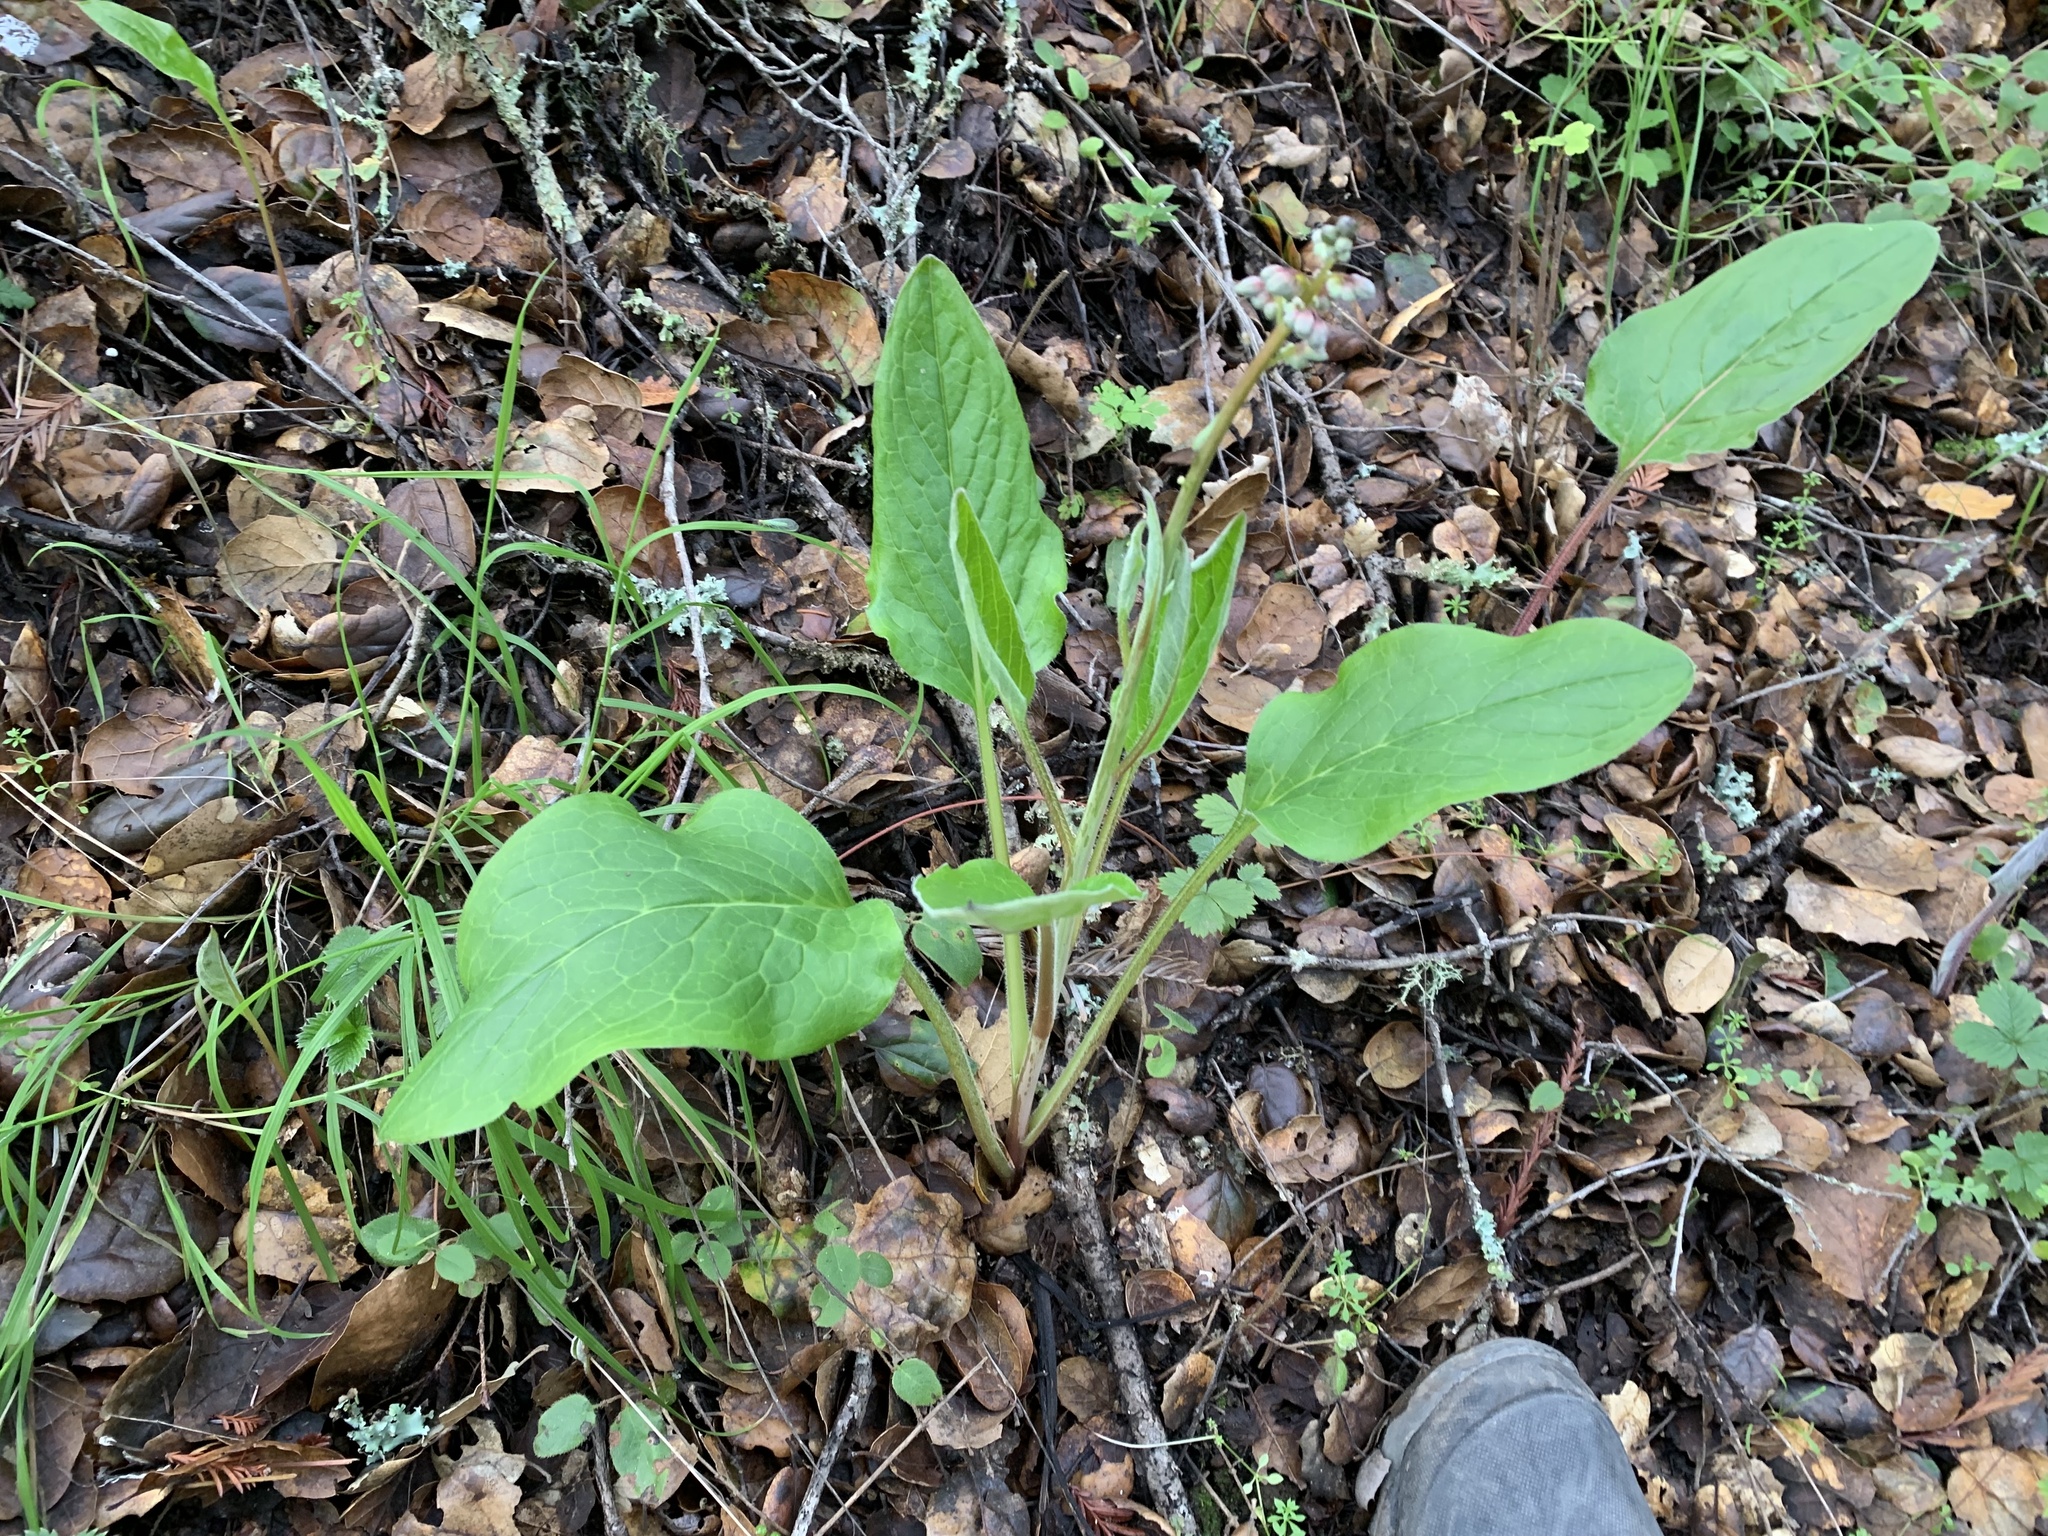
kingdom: Plantae
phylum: Tracheophyta
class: Magnoliopsida
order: Boraginales
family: Boraginaceae
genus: Adelinia
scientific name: Adelinia grande
